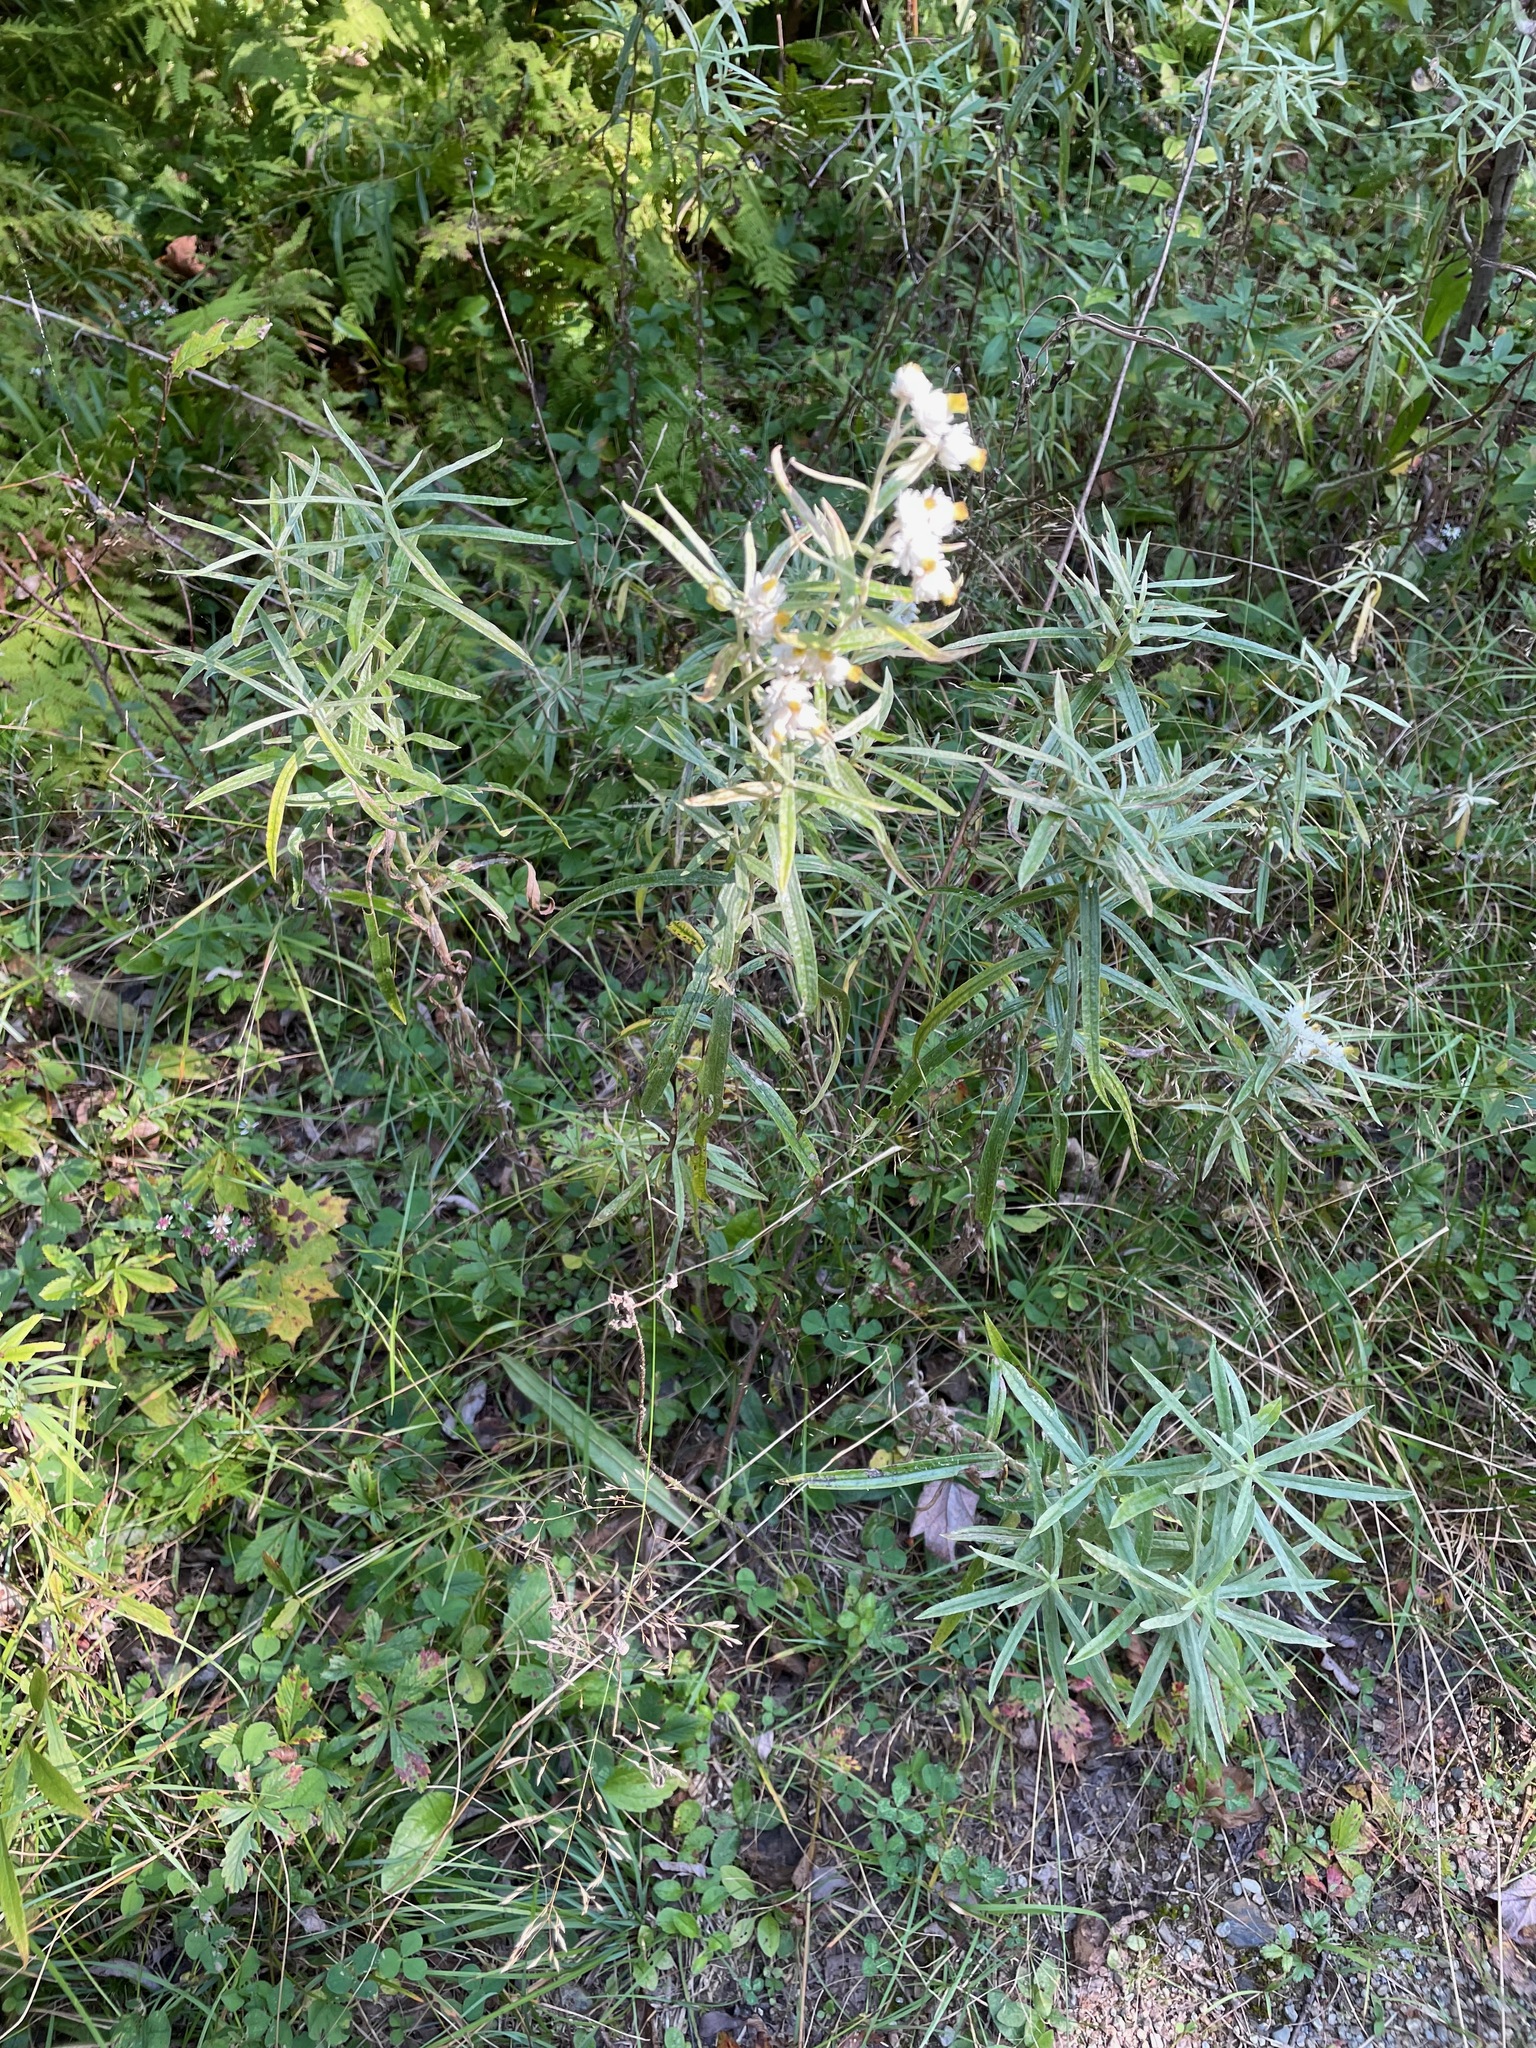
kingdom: Plantae
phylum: Tracheophyta
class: Magnoliopsida
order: Asterales
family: Asteraceae
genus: Anaphalis
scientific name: Anaphalis margaritacea
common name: Pearly everlasting
